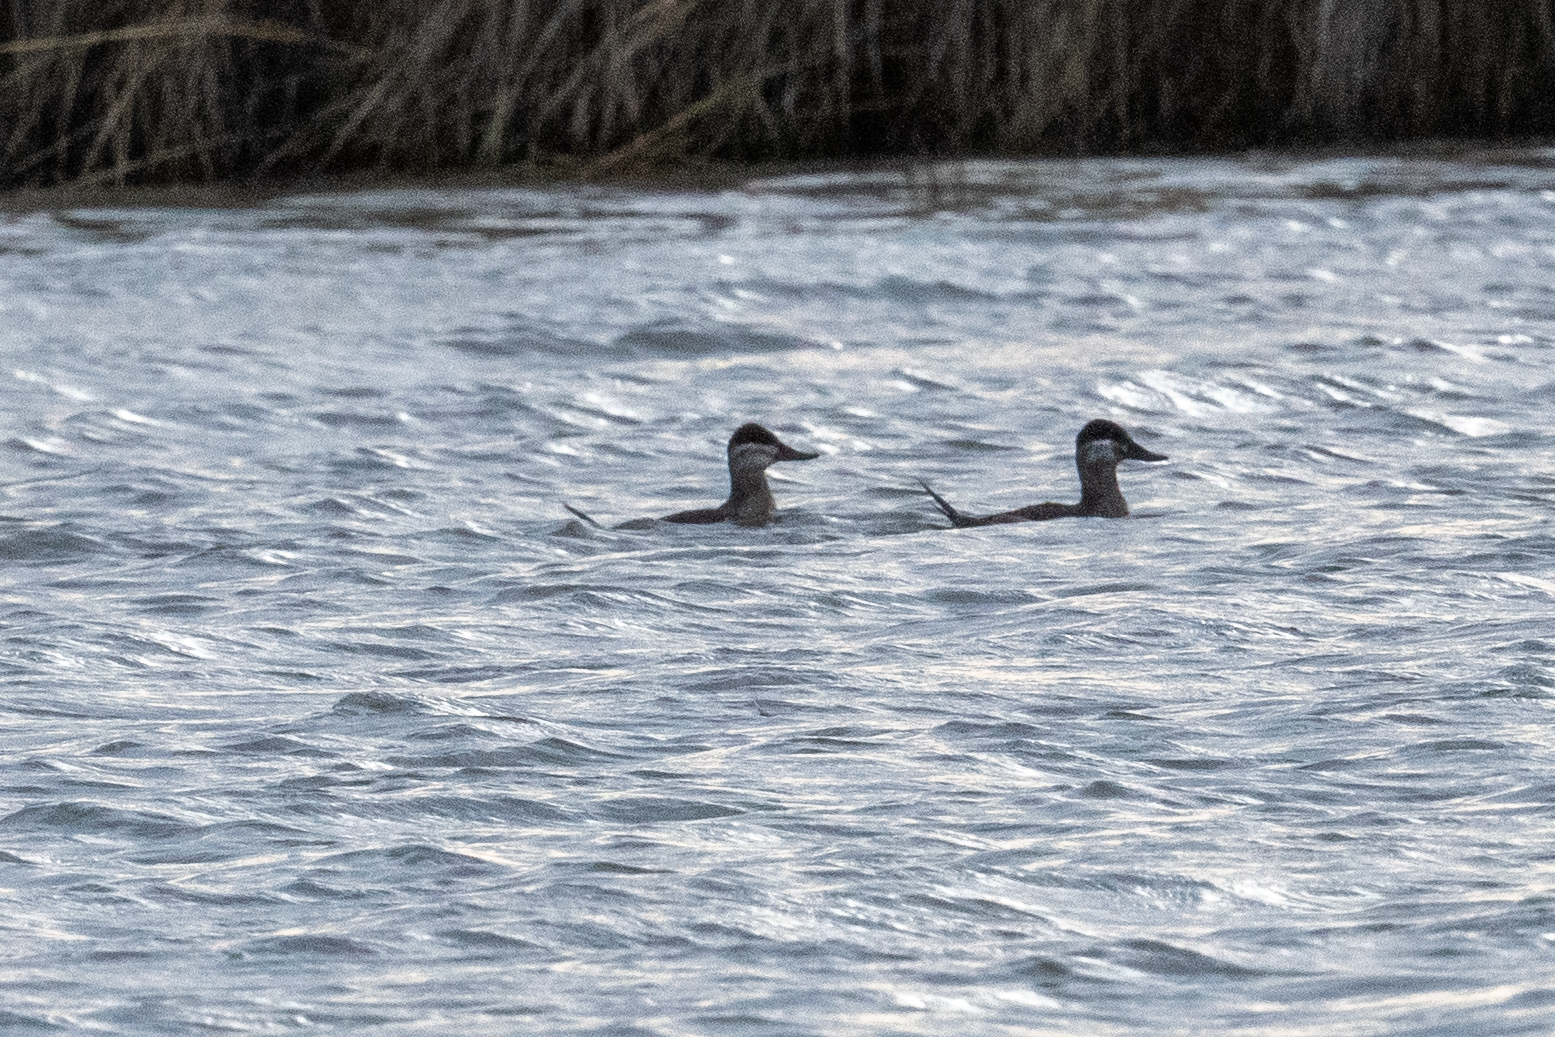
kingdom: Animalia
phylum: Chordata
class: Aves
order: Anseriformes
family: Anatidae
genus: Oxyura
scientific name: Oxyura jamaicensis
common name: Ruddy duck
